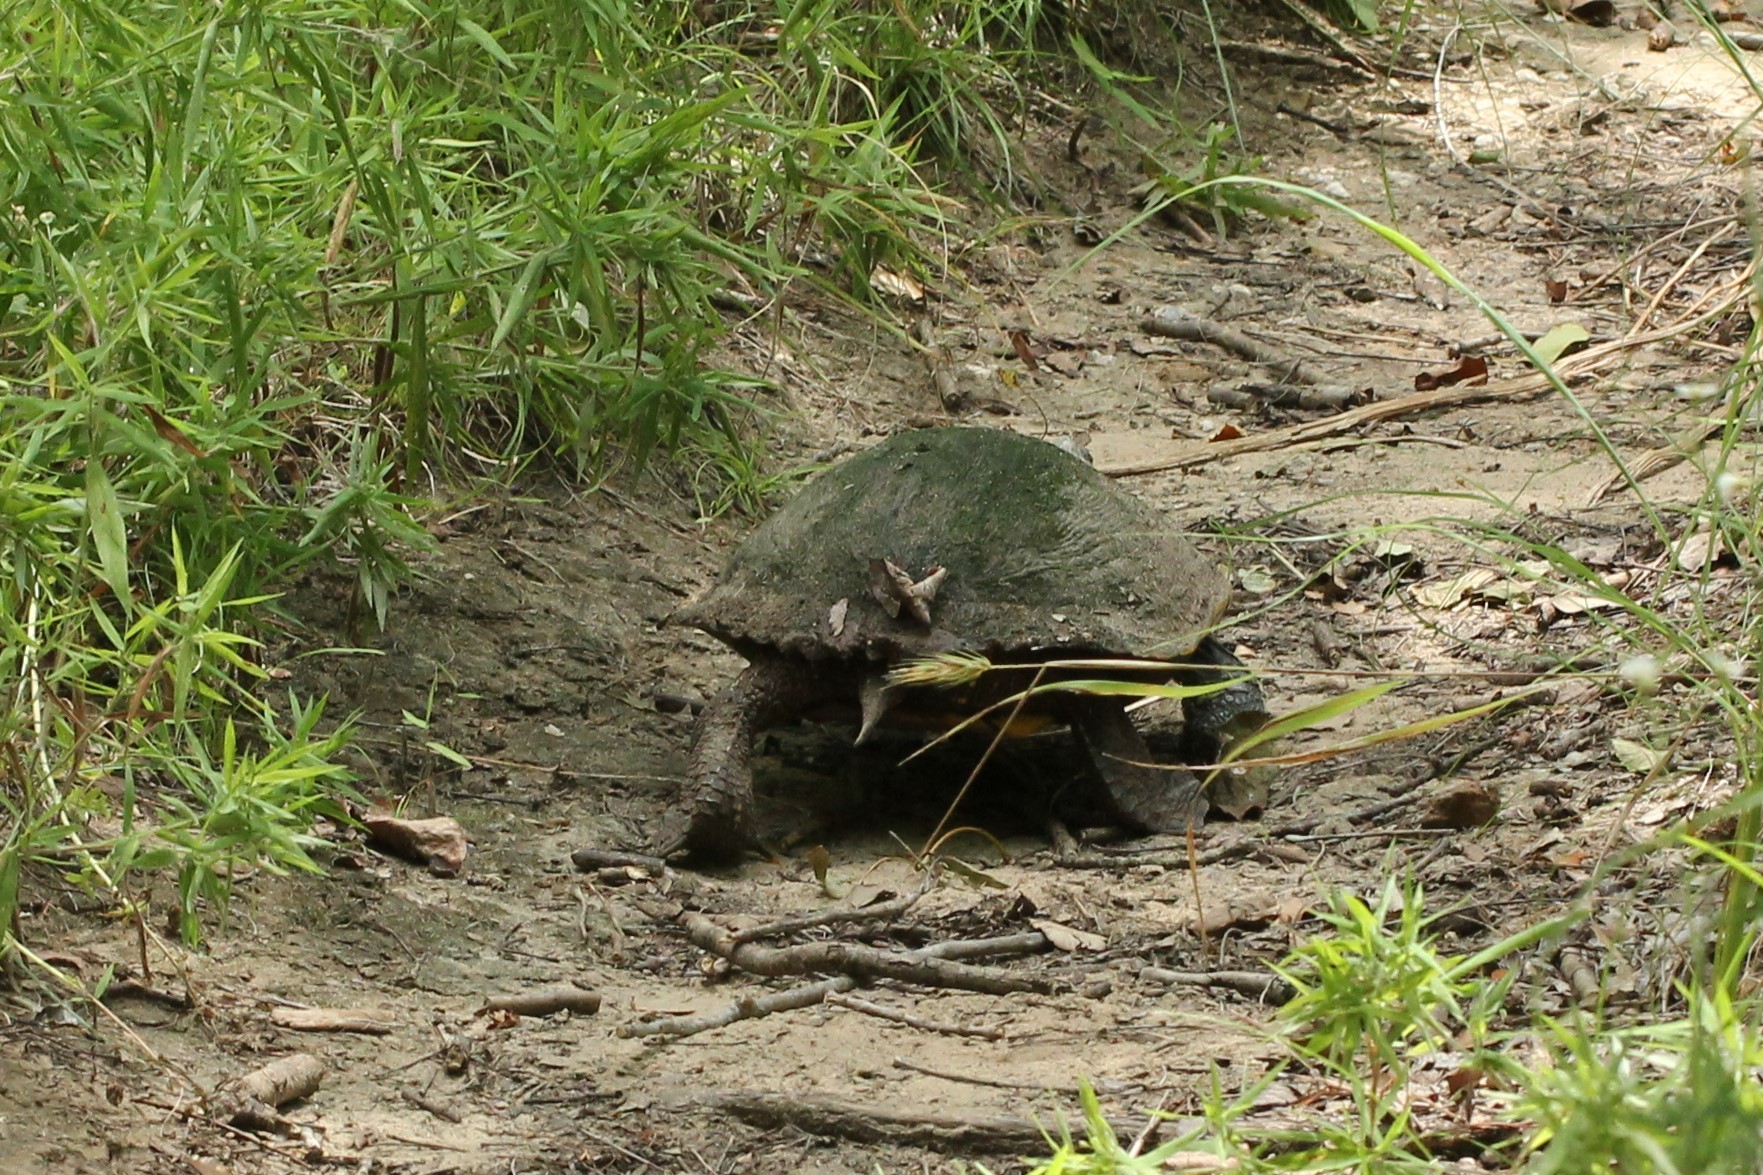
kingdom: Animalia
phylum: Chordata
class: Testudines
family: Emydidae
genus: Trachemys
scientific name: Trachemys scripta
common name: Slider
